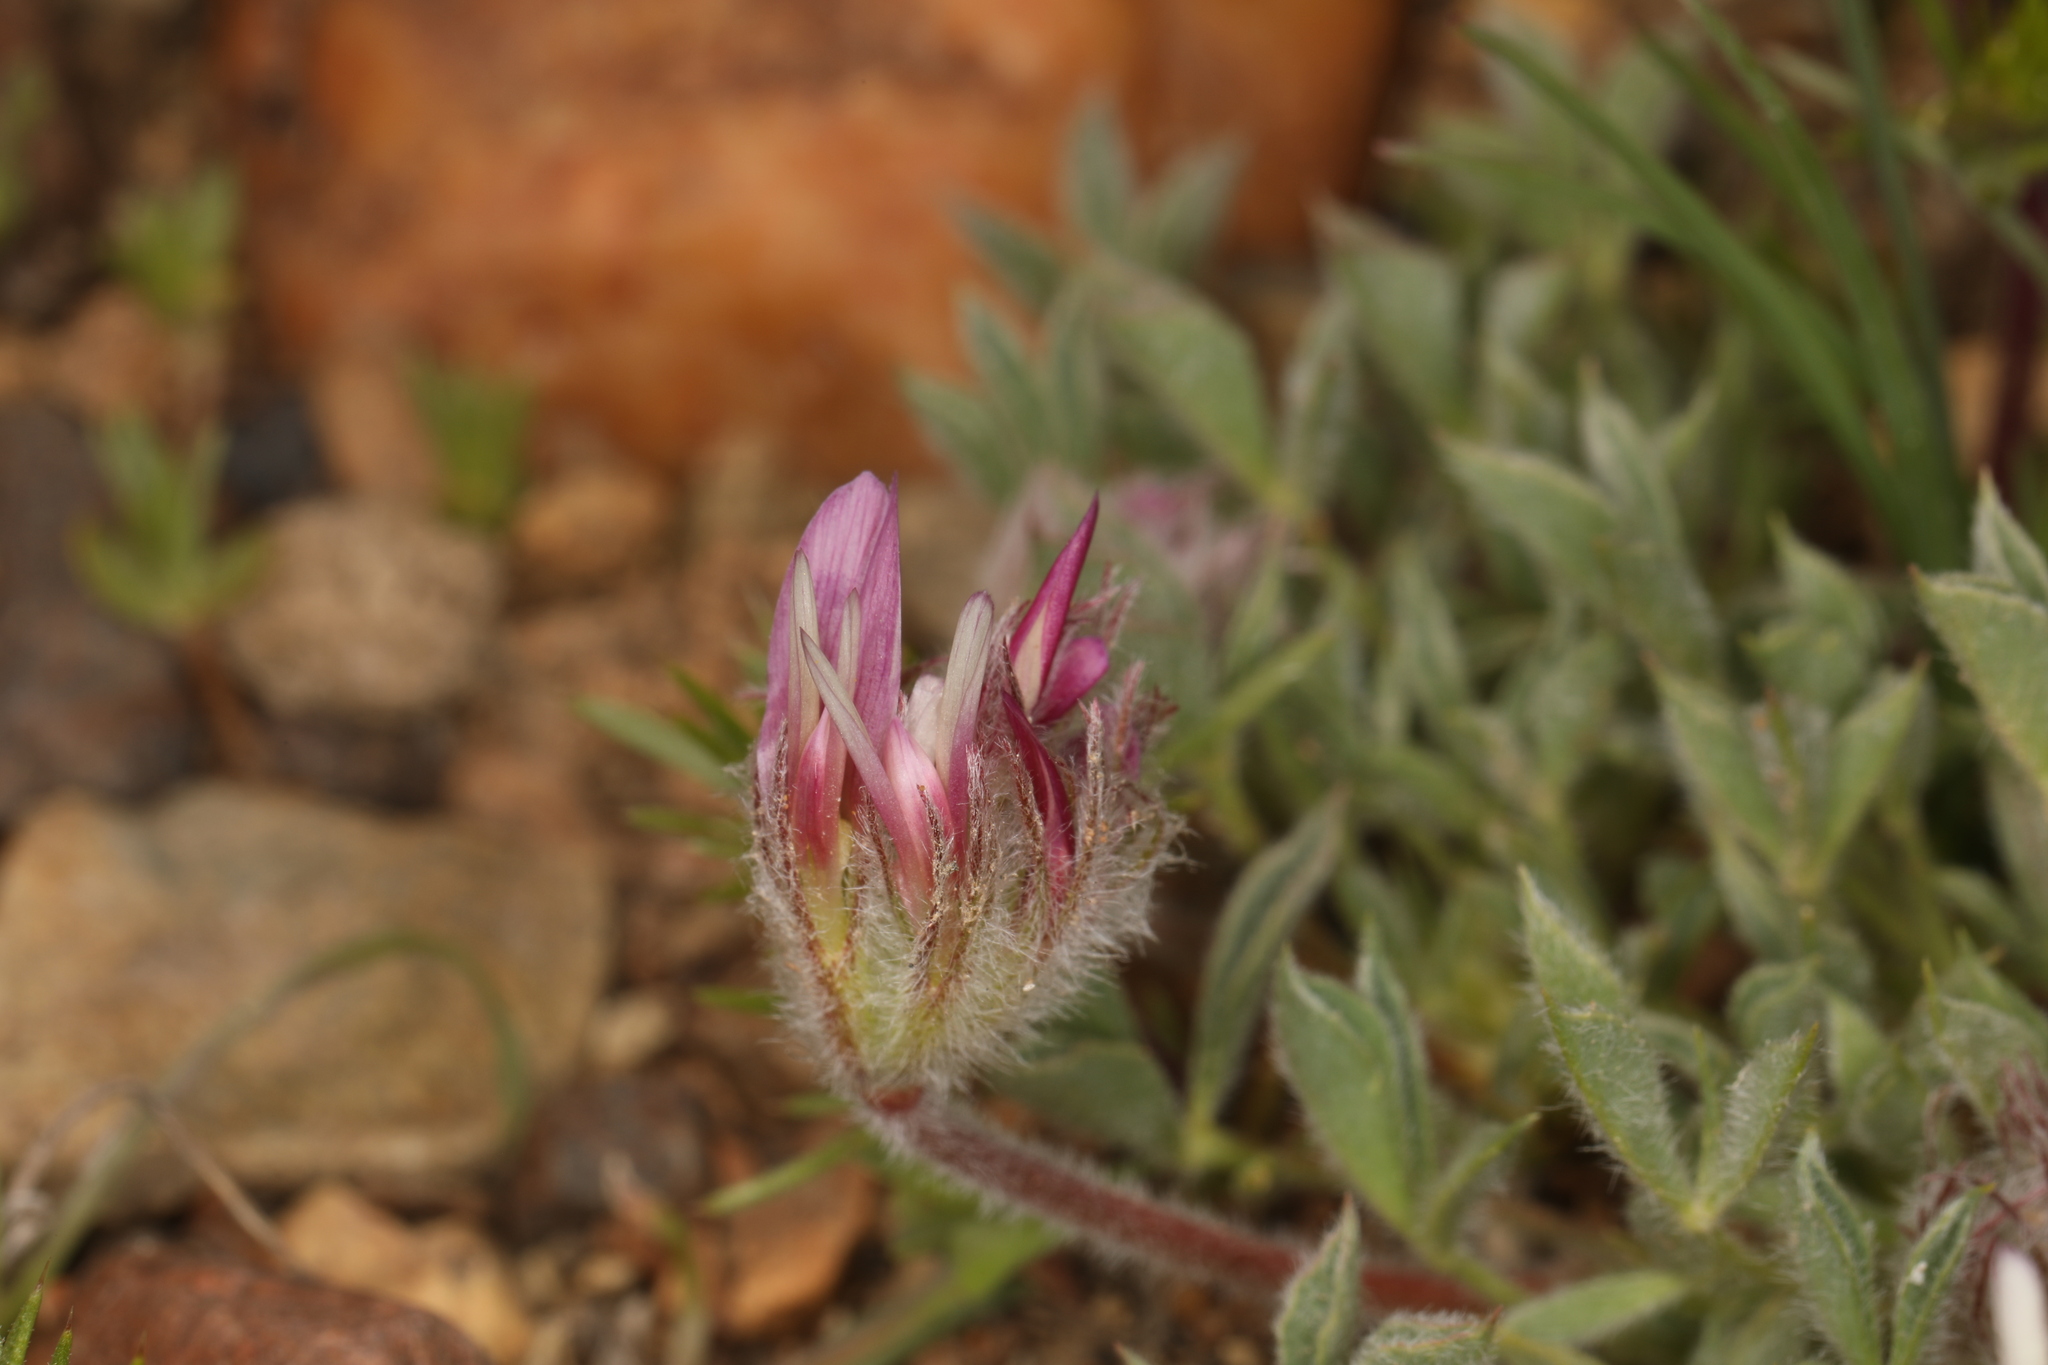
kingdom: Plantae
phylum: Tracheophyta
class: Magnoliopsida
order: Fabales
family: Fabaceae
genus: Trifolium
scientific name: Trifolium andersonii
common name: Anderson's clover
